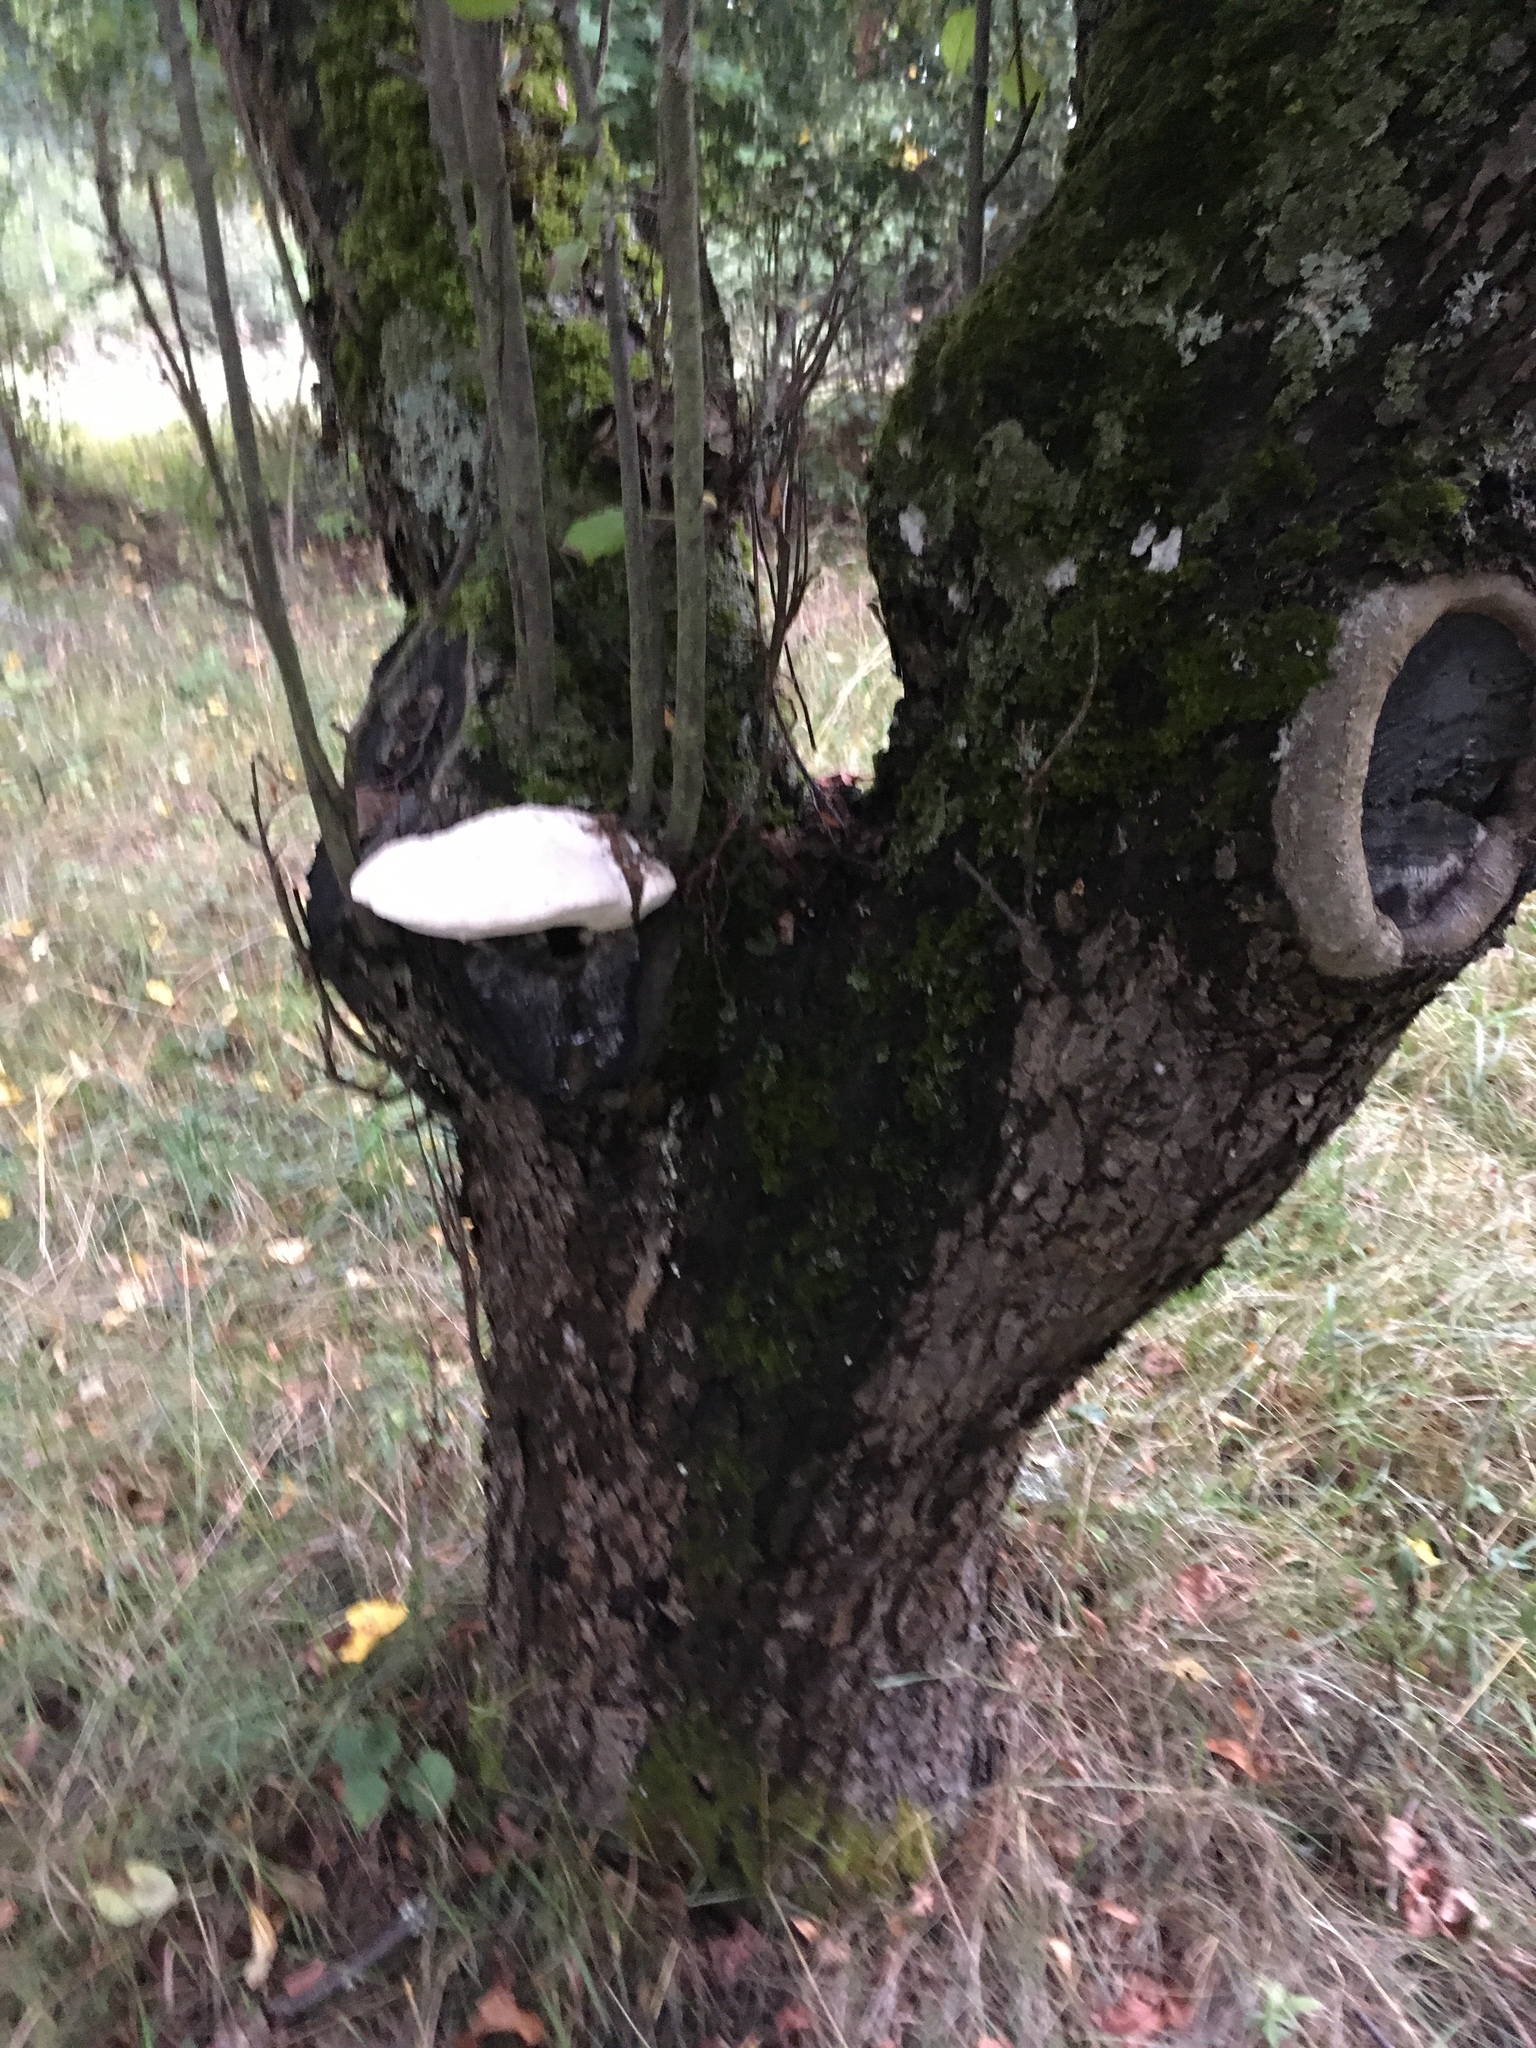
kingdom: Fungi
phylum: Basidiomycota
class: Agaricomycetes
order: Polyporales
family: Meruliaceae
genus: Pappia
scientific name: Pappia fissilis
